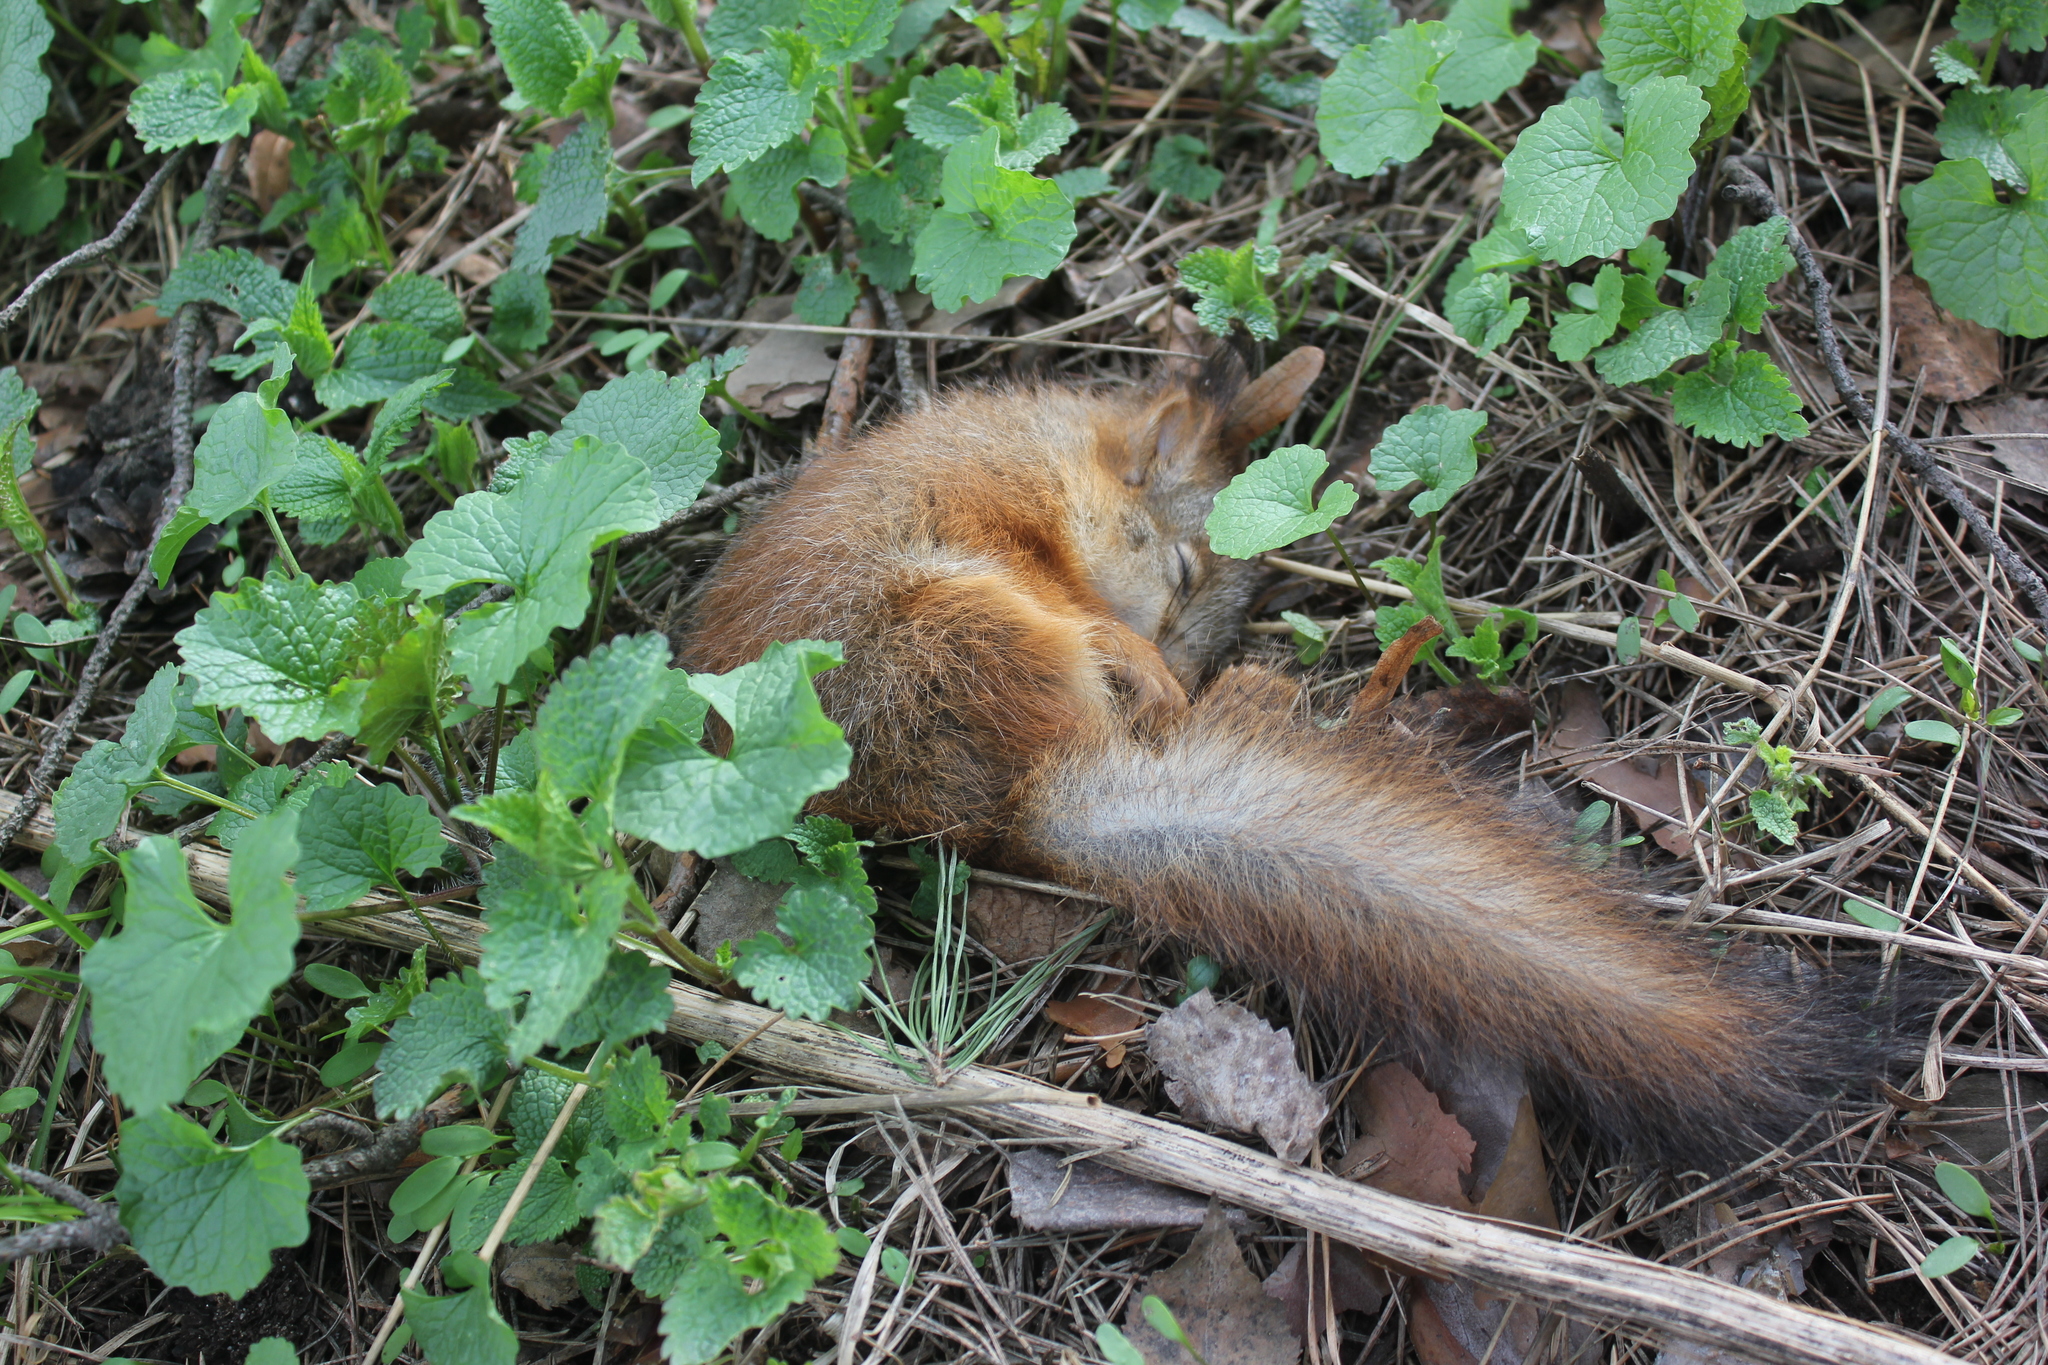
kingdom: Animalia
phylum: Chordata
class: Mammalia
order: Rodentia
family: Sciuridae
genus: Sciurus
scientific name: Sciurus vulgaris
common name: Eurasian red squirrel
